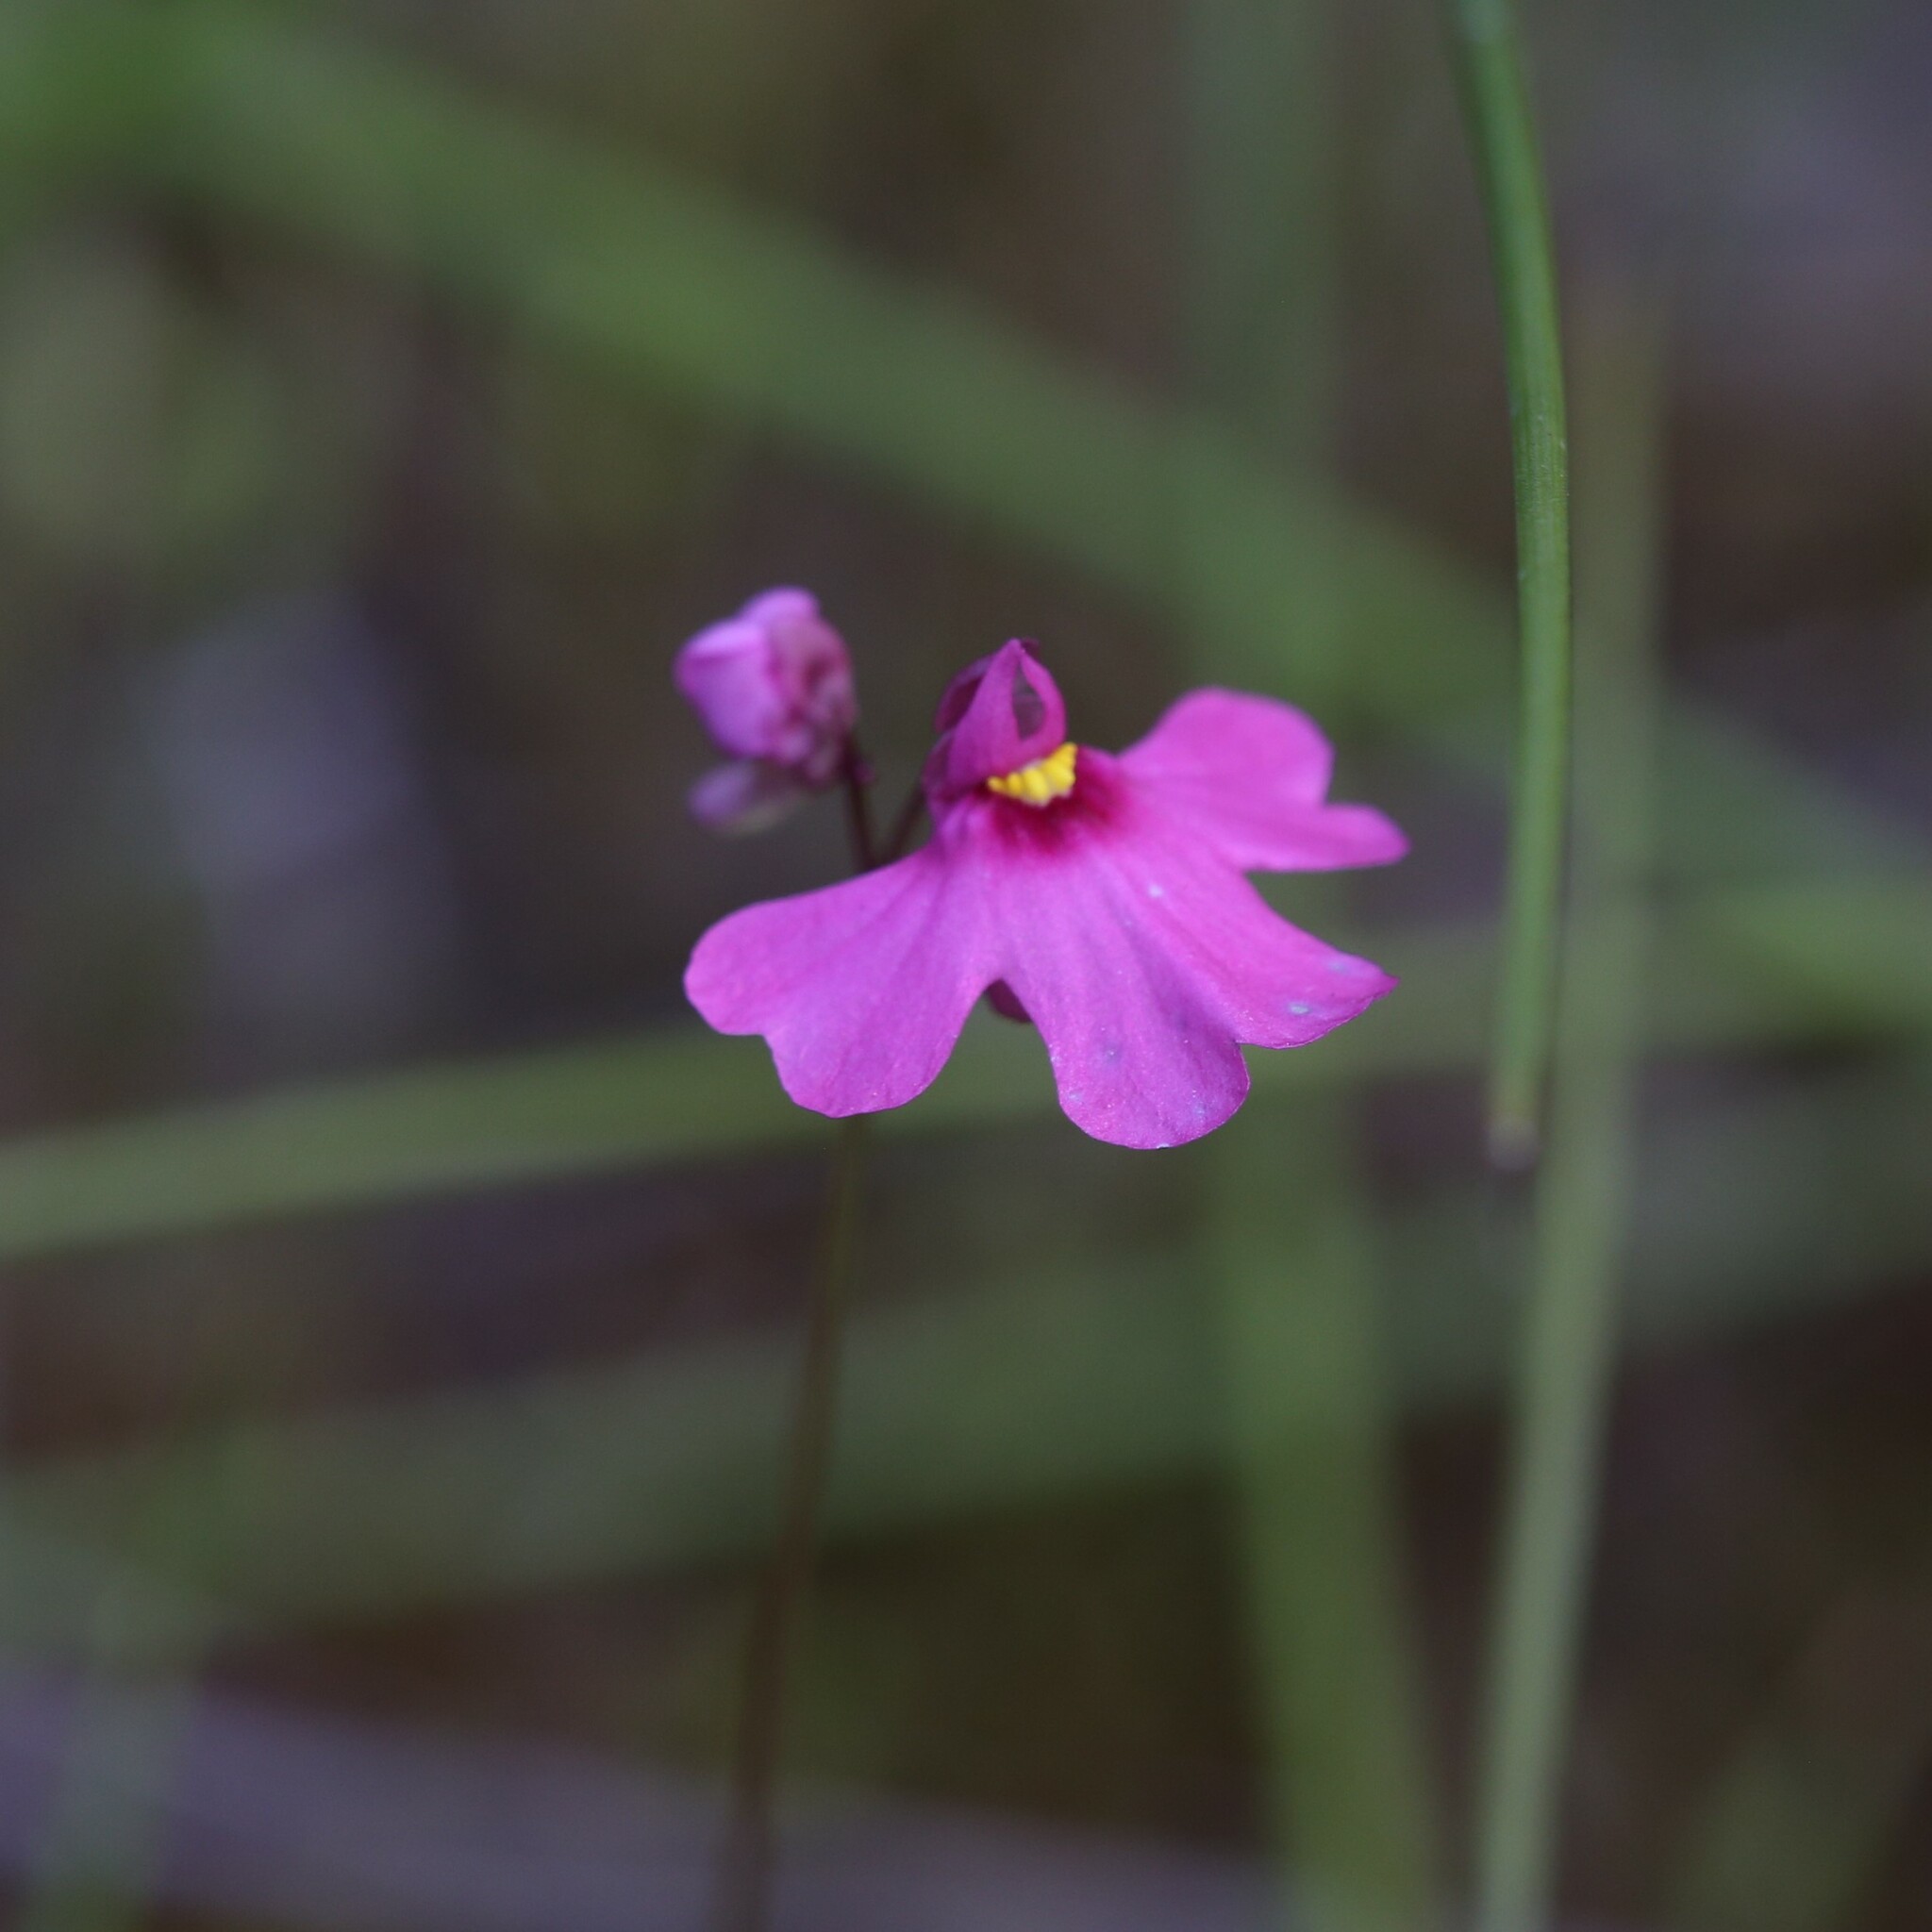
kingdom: Plantae
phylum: Tracheophyta
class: Magnoliopsida
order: Lamiales
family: Lentibulariaceae
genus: Utricularia
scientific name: Utricularia multifida
